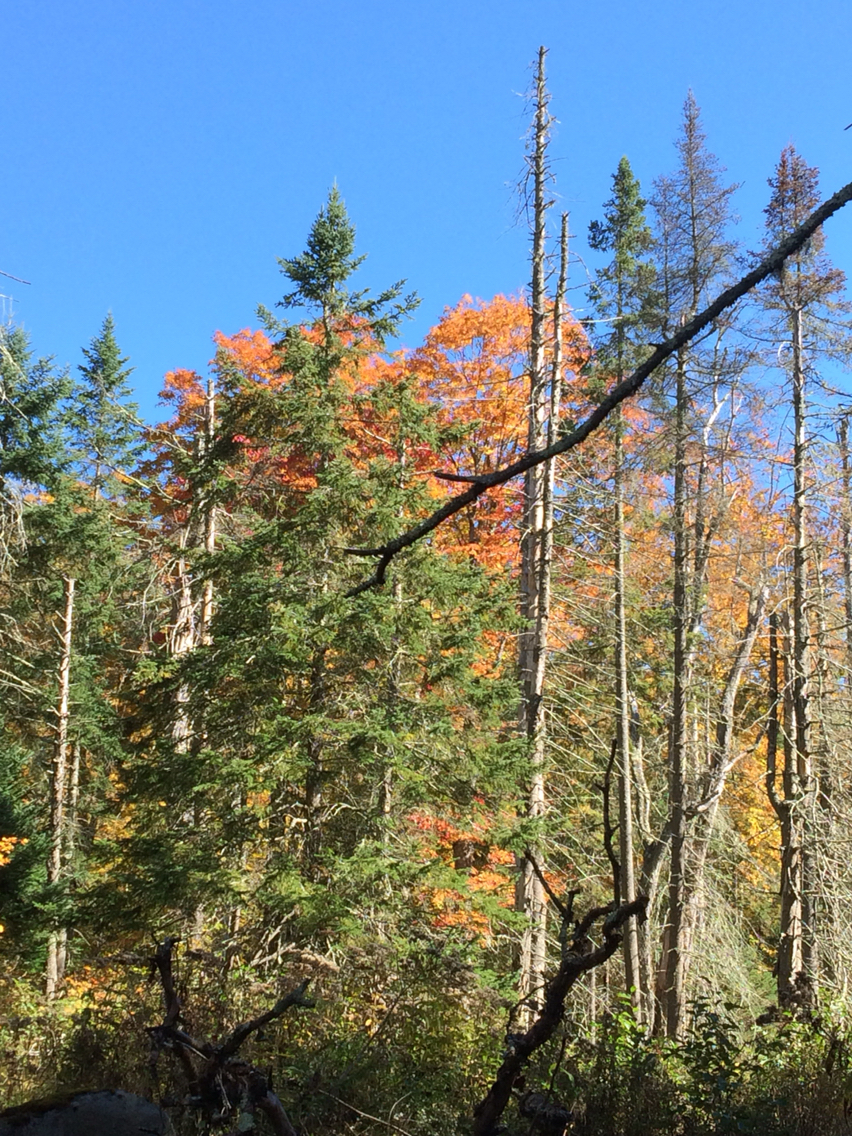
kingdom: Plantae
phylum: Tracheophyta
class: Pinopsida
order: Pinales
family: Pinaceae
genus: Abies
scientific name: Abies balsamea
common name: Balsam fir
